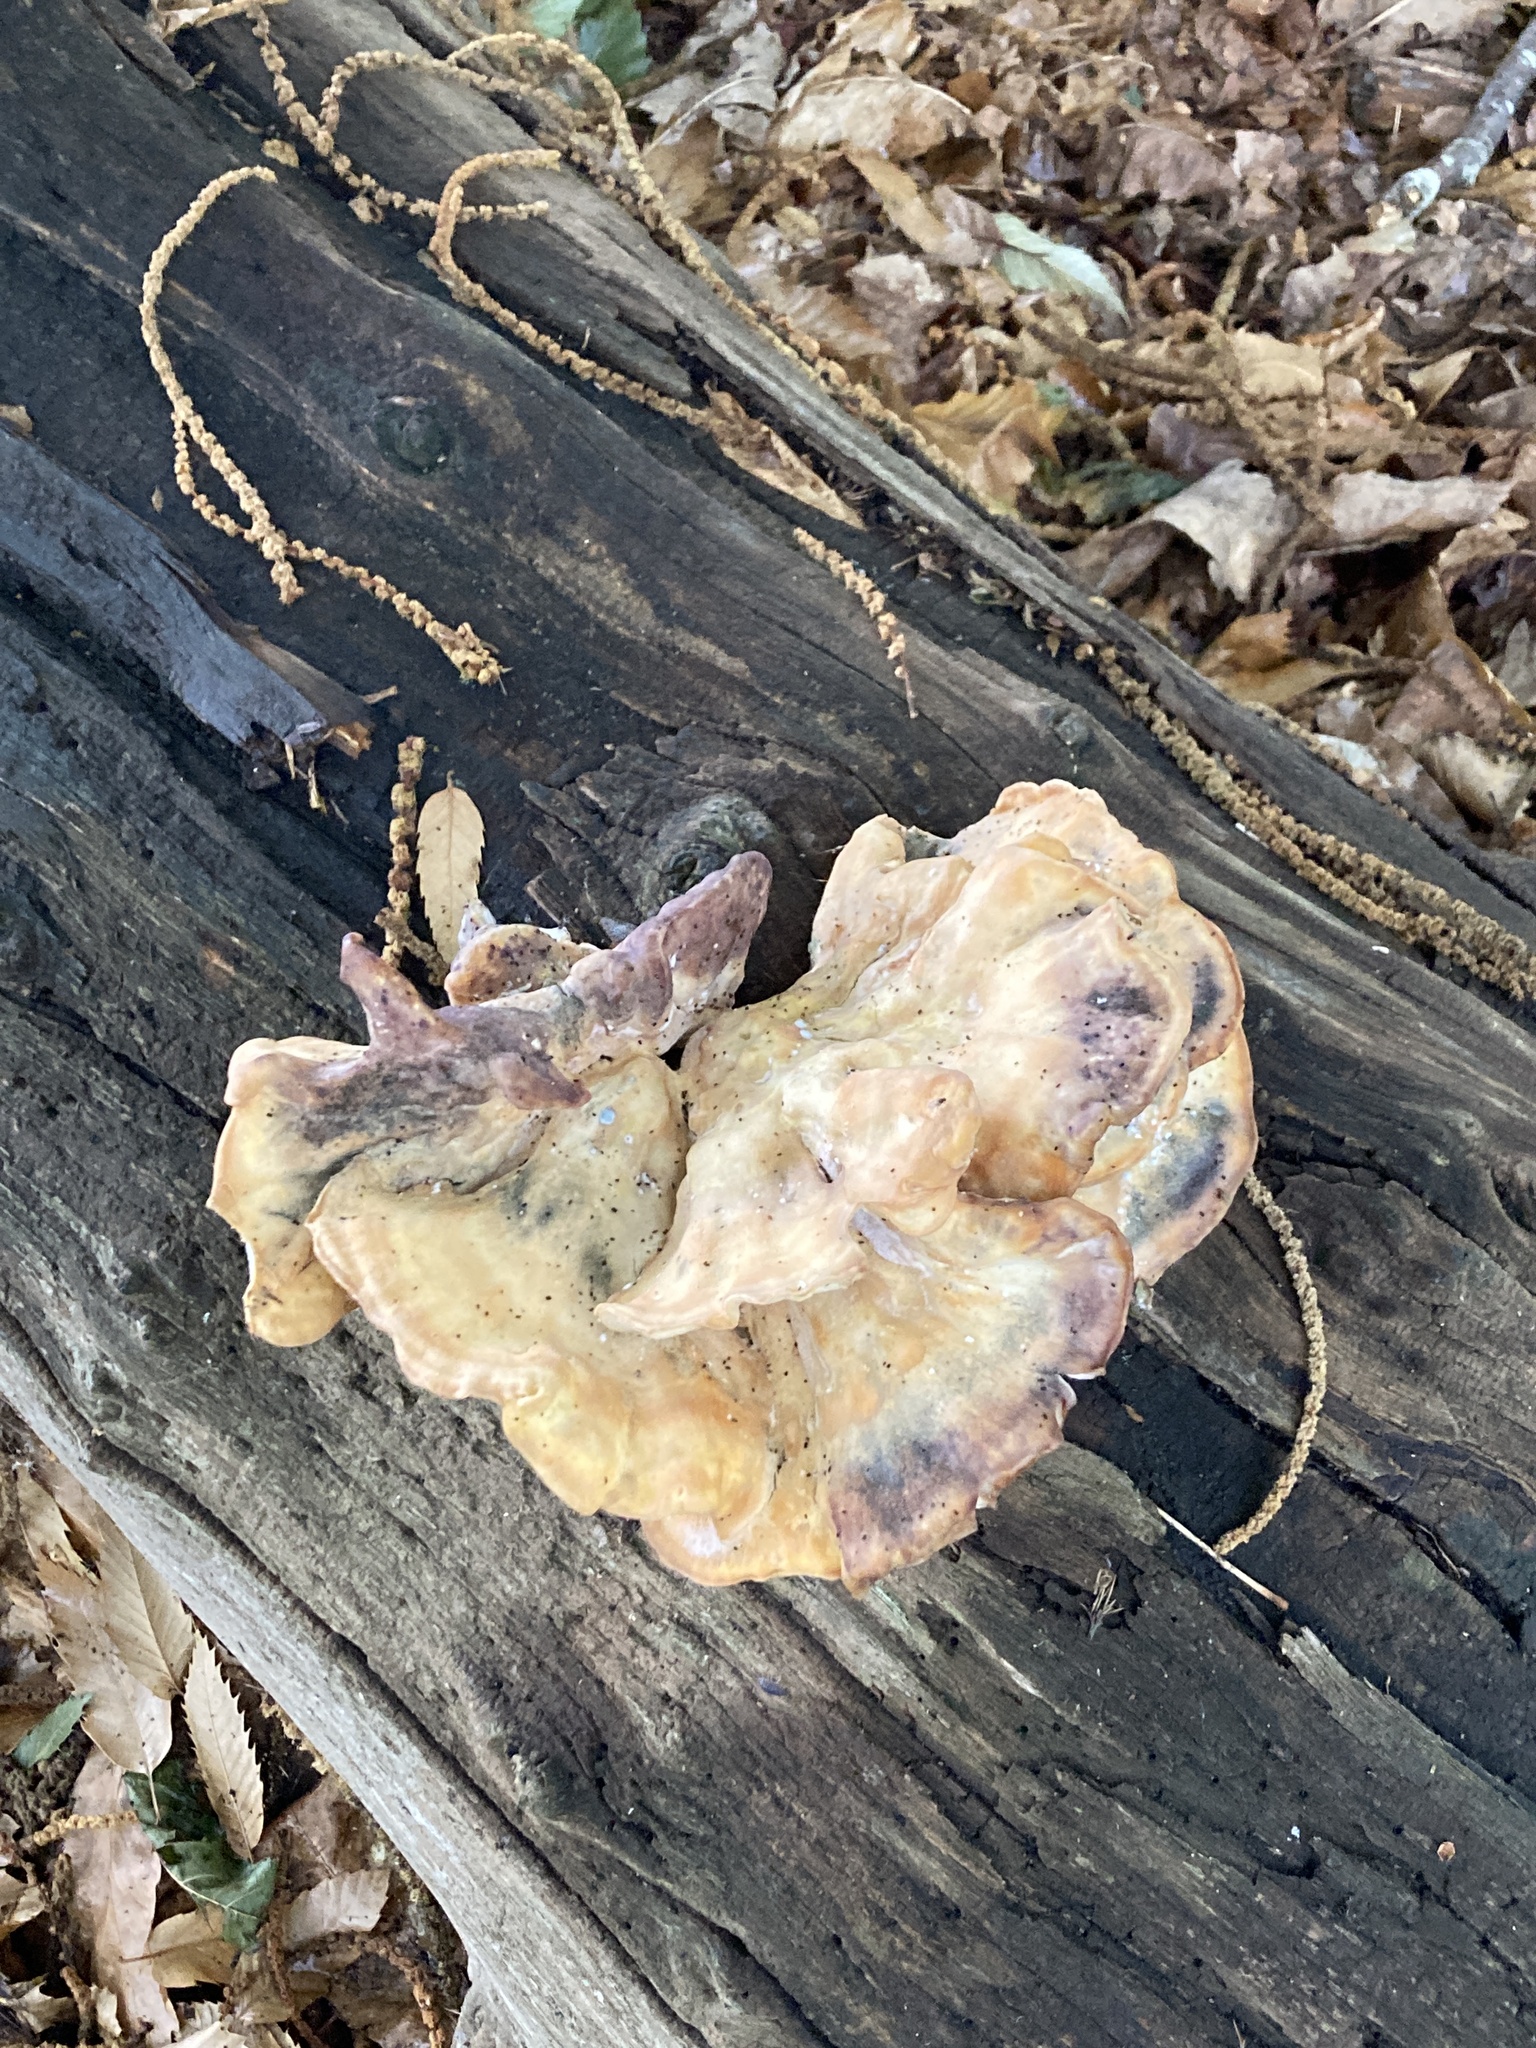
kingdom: Fungi
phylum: Basidiomycota
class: Agaricomycetes
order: Polyporales
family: Laetiporaceae
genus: Laetiporus
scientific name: Laetiporus sulphureus
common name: Chicken of the woods
